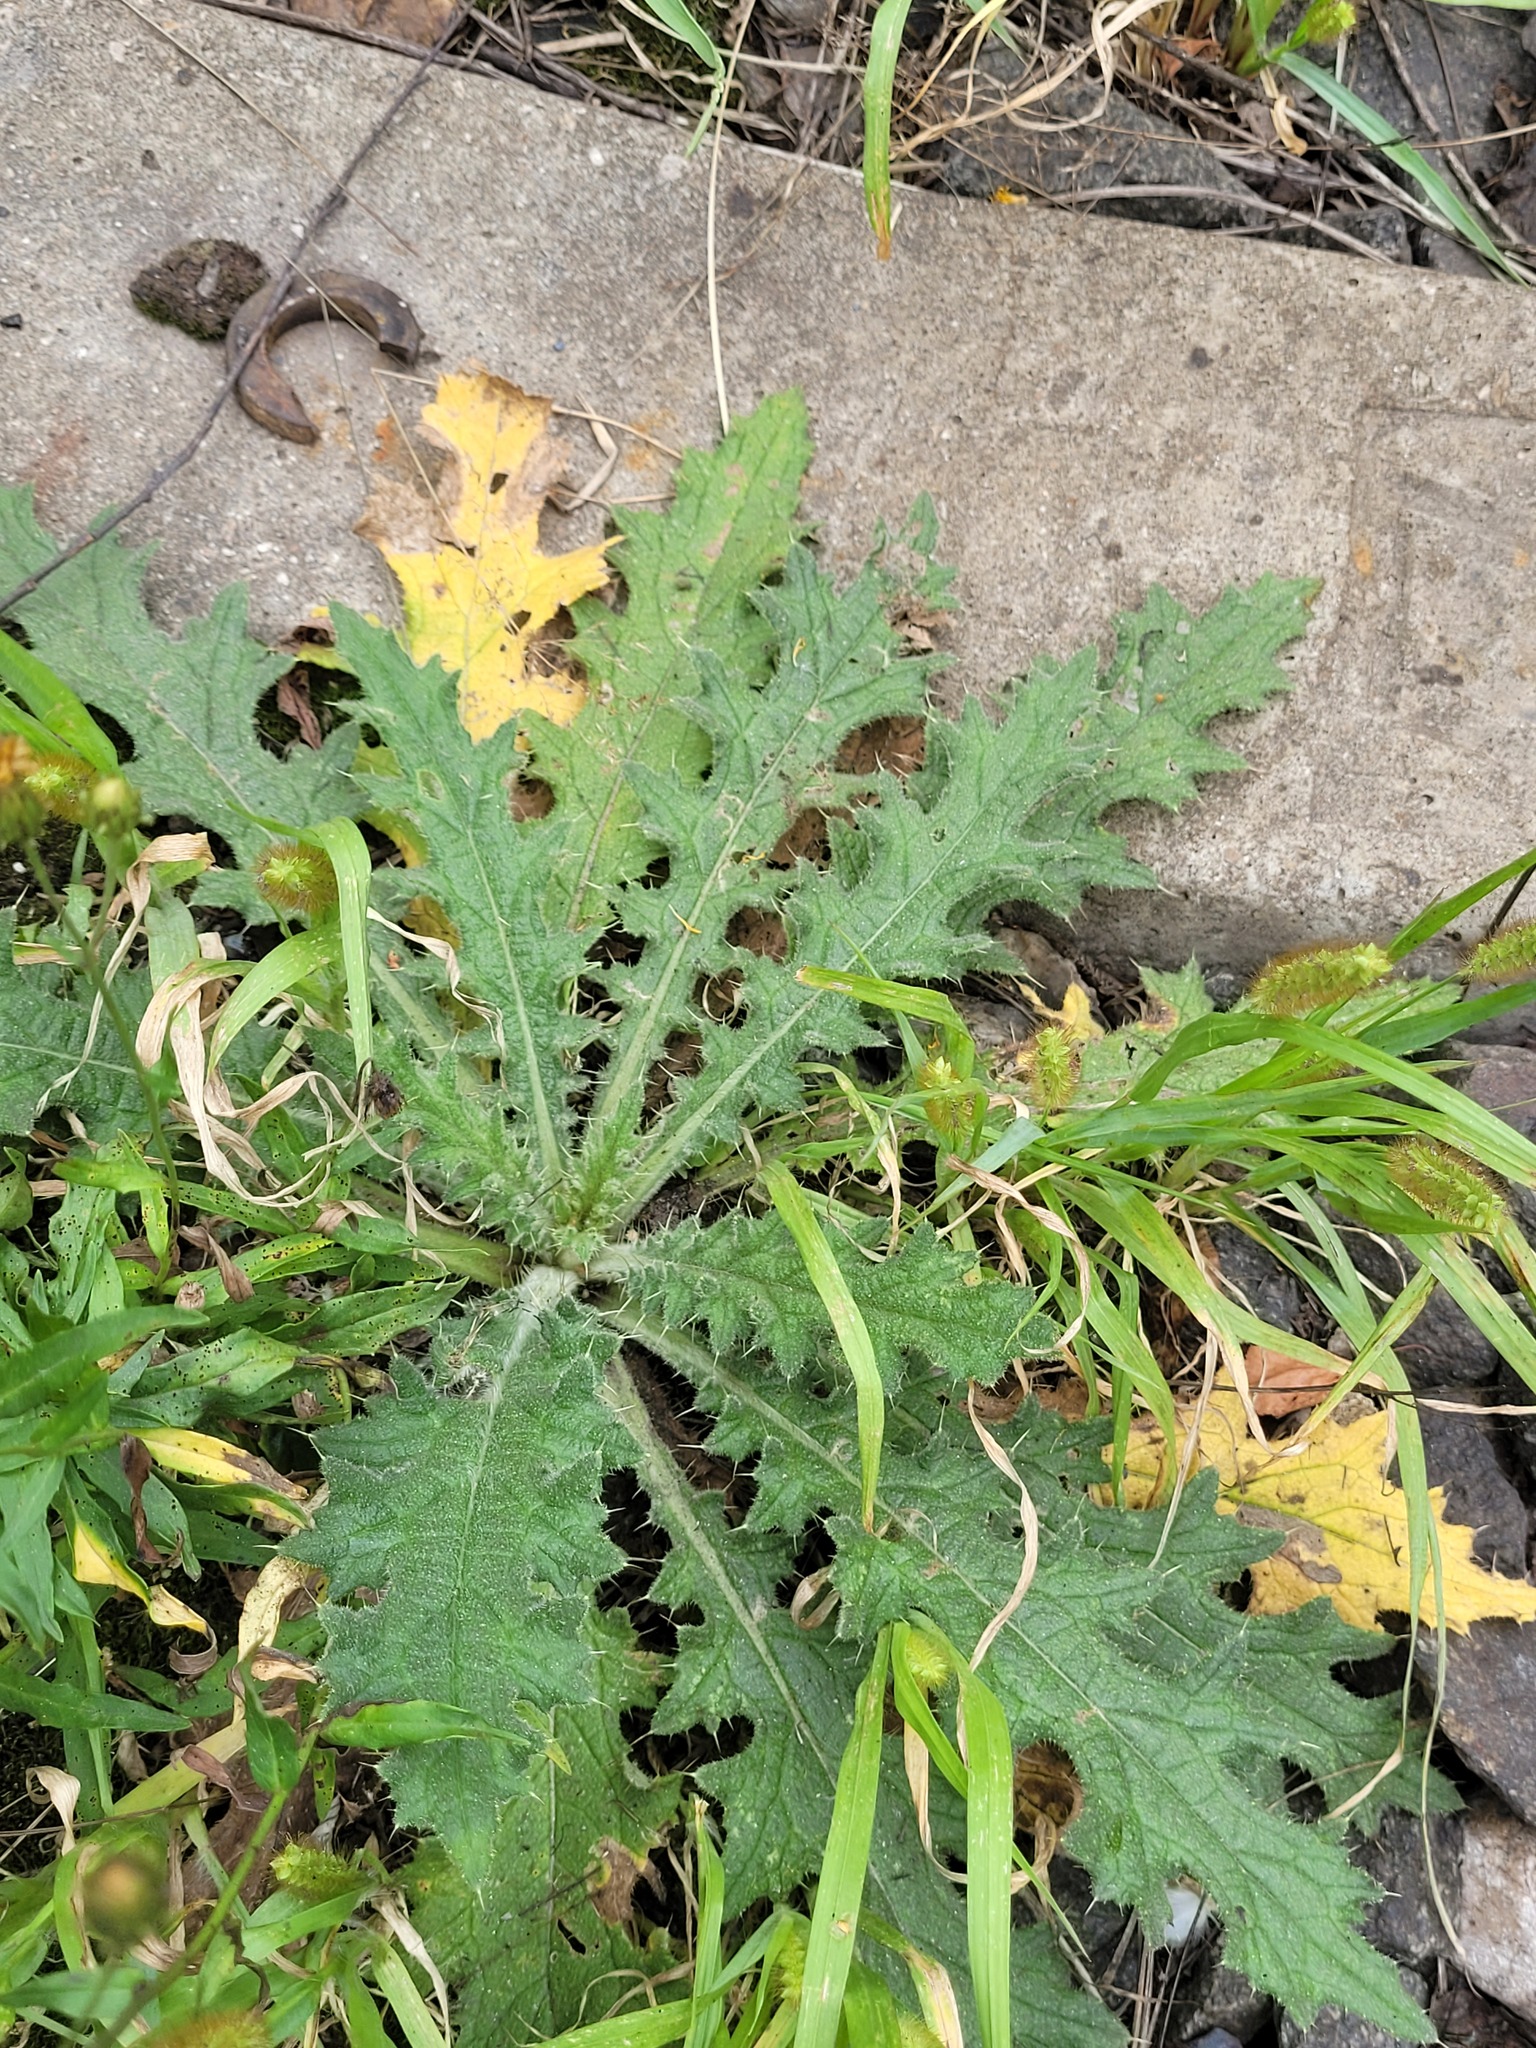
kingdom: Plantae
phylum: Tracheophyta
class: Magnoliopsida
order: Asterales
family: Asteraceae
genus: Cirsium
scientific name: Cirsium vulgare
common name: Bull thistle
